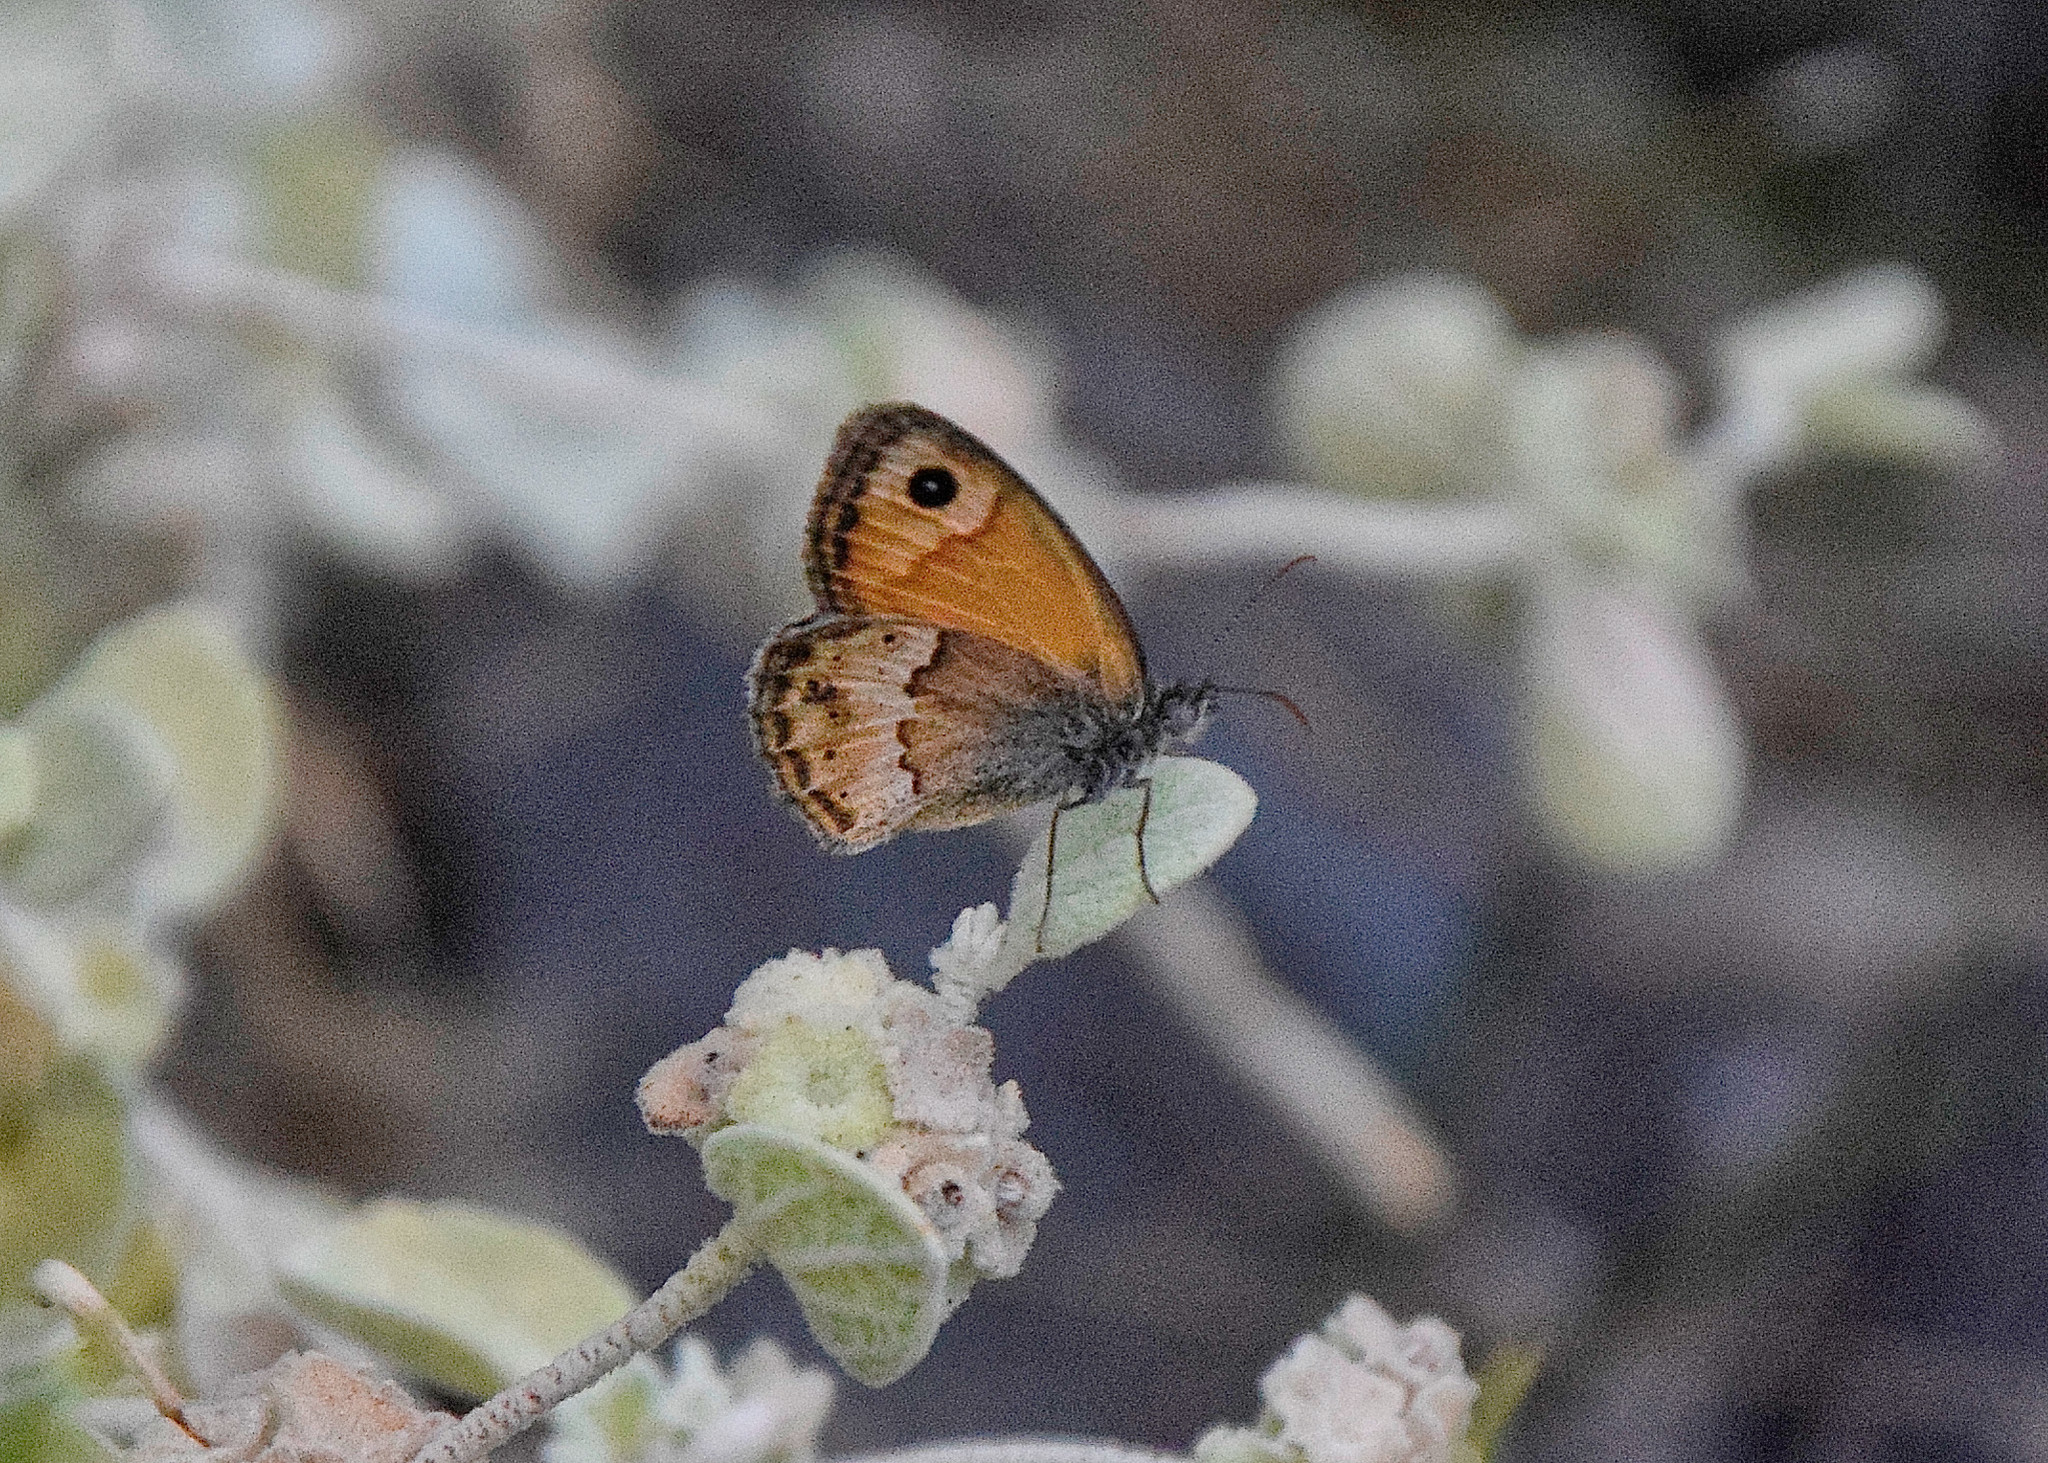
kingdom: Animalia
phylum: Arthropoda
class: Insecta
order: Lepidoptera
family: Nymphalidae
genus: Coenonympha
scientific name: Coenonympha thyrsis
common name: Cretan small heath
